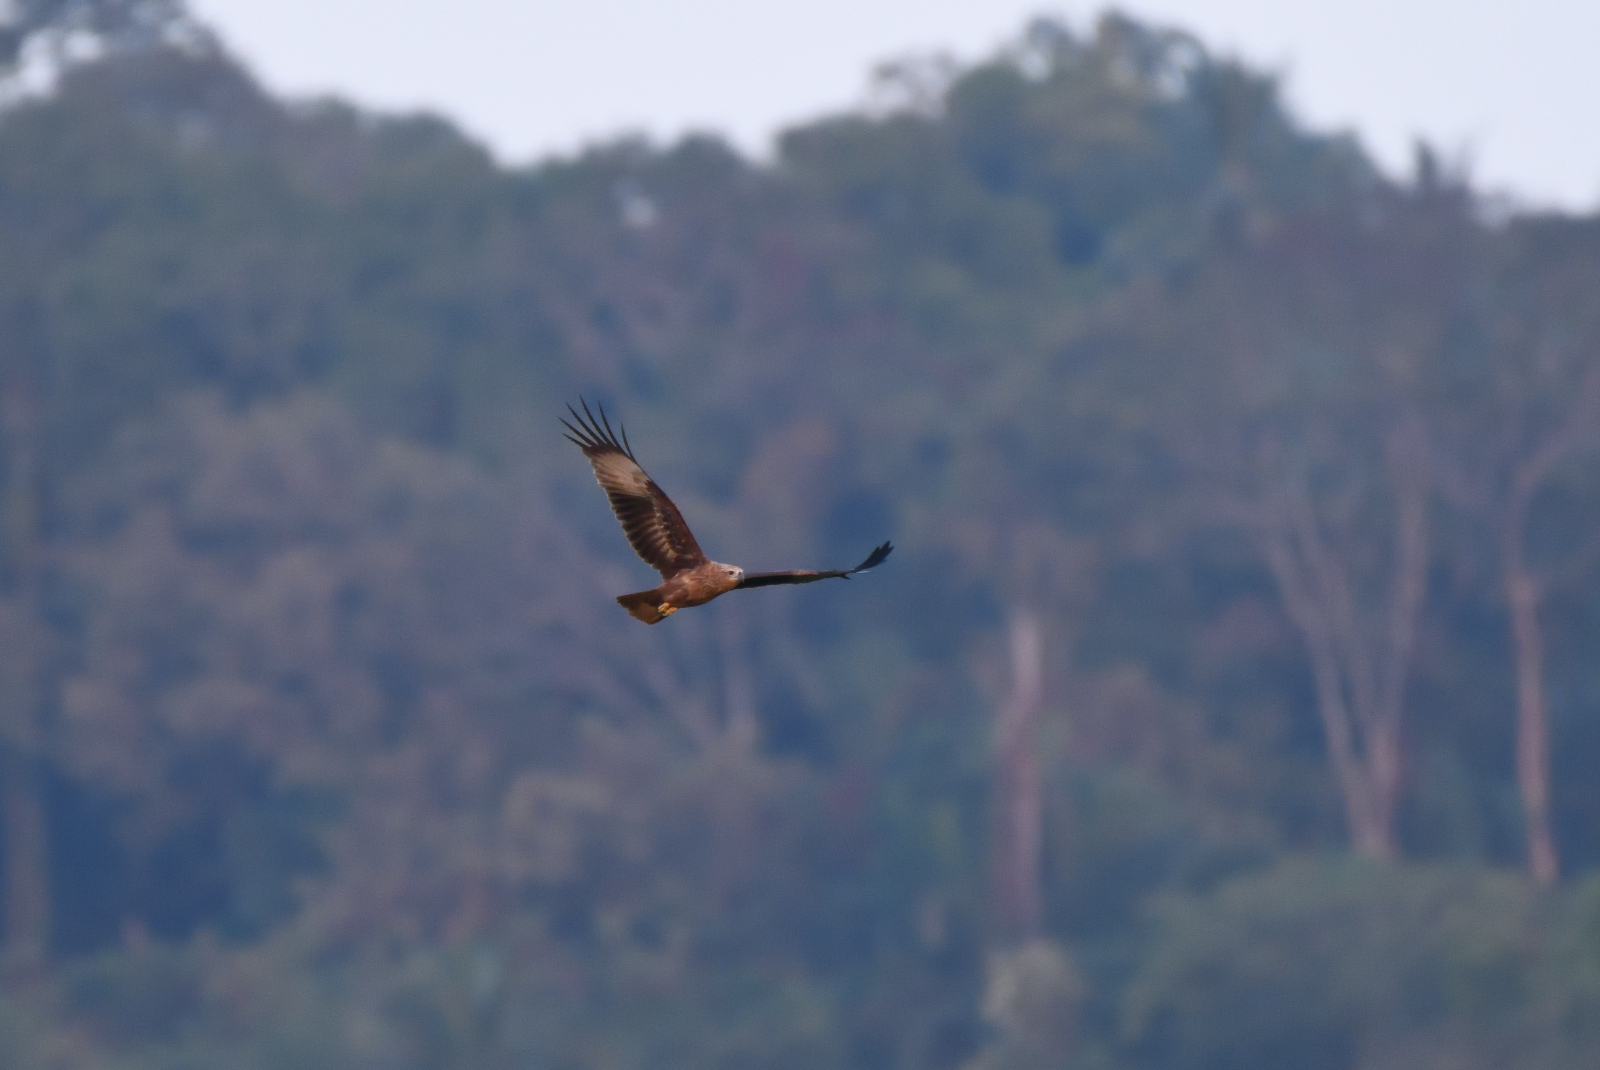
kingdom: Animalia
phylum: Chordata
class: Aves
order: Accipitriformes
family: Accipitridae
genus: Haliastur
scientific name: Haliastur indus
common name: Brahminy kite
